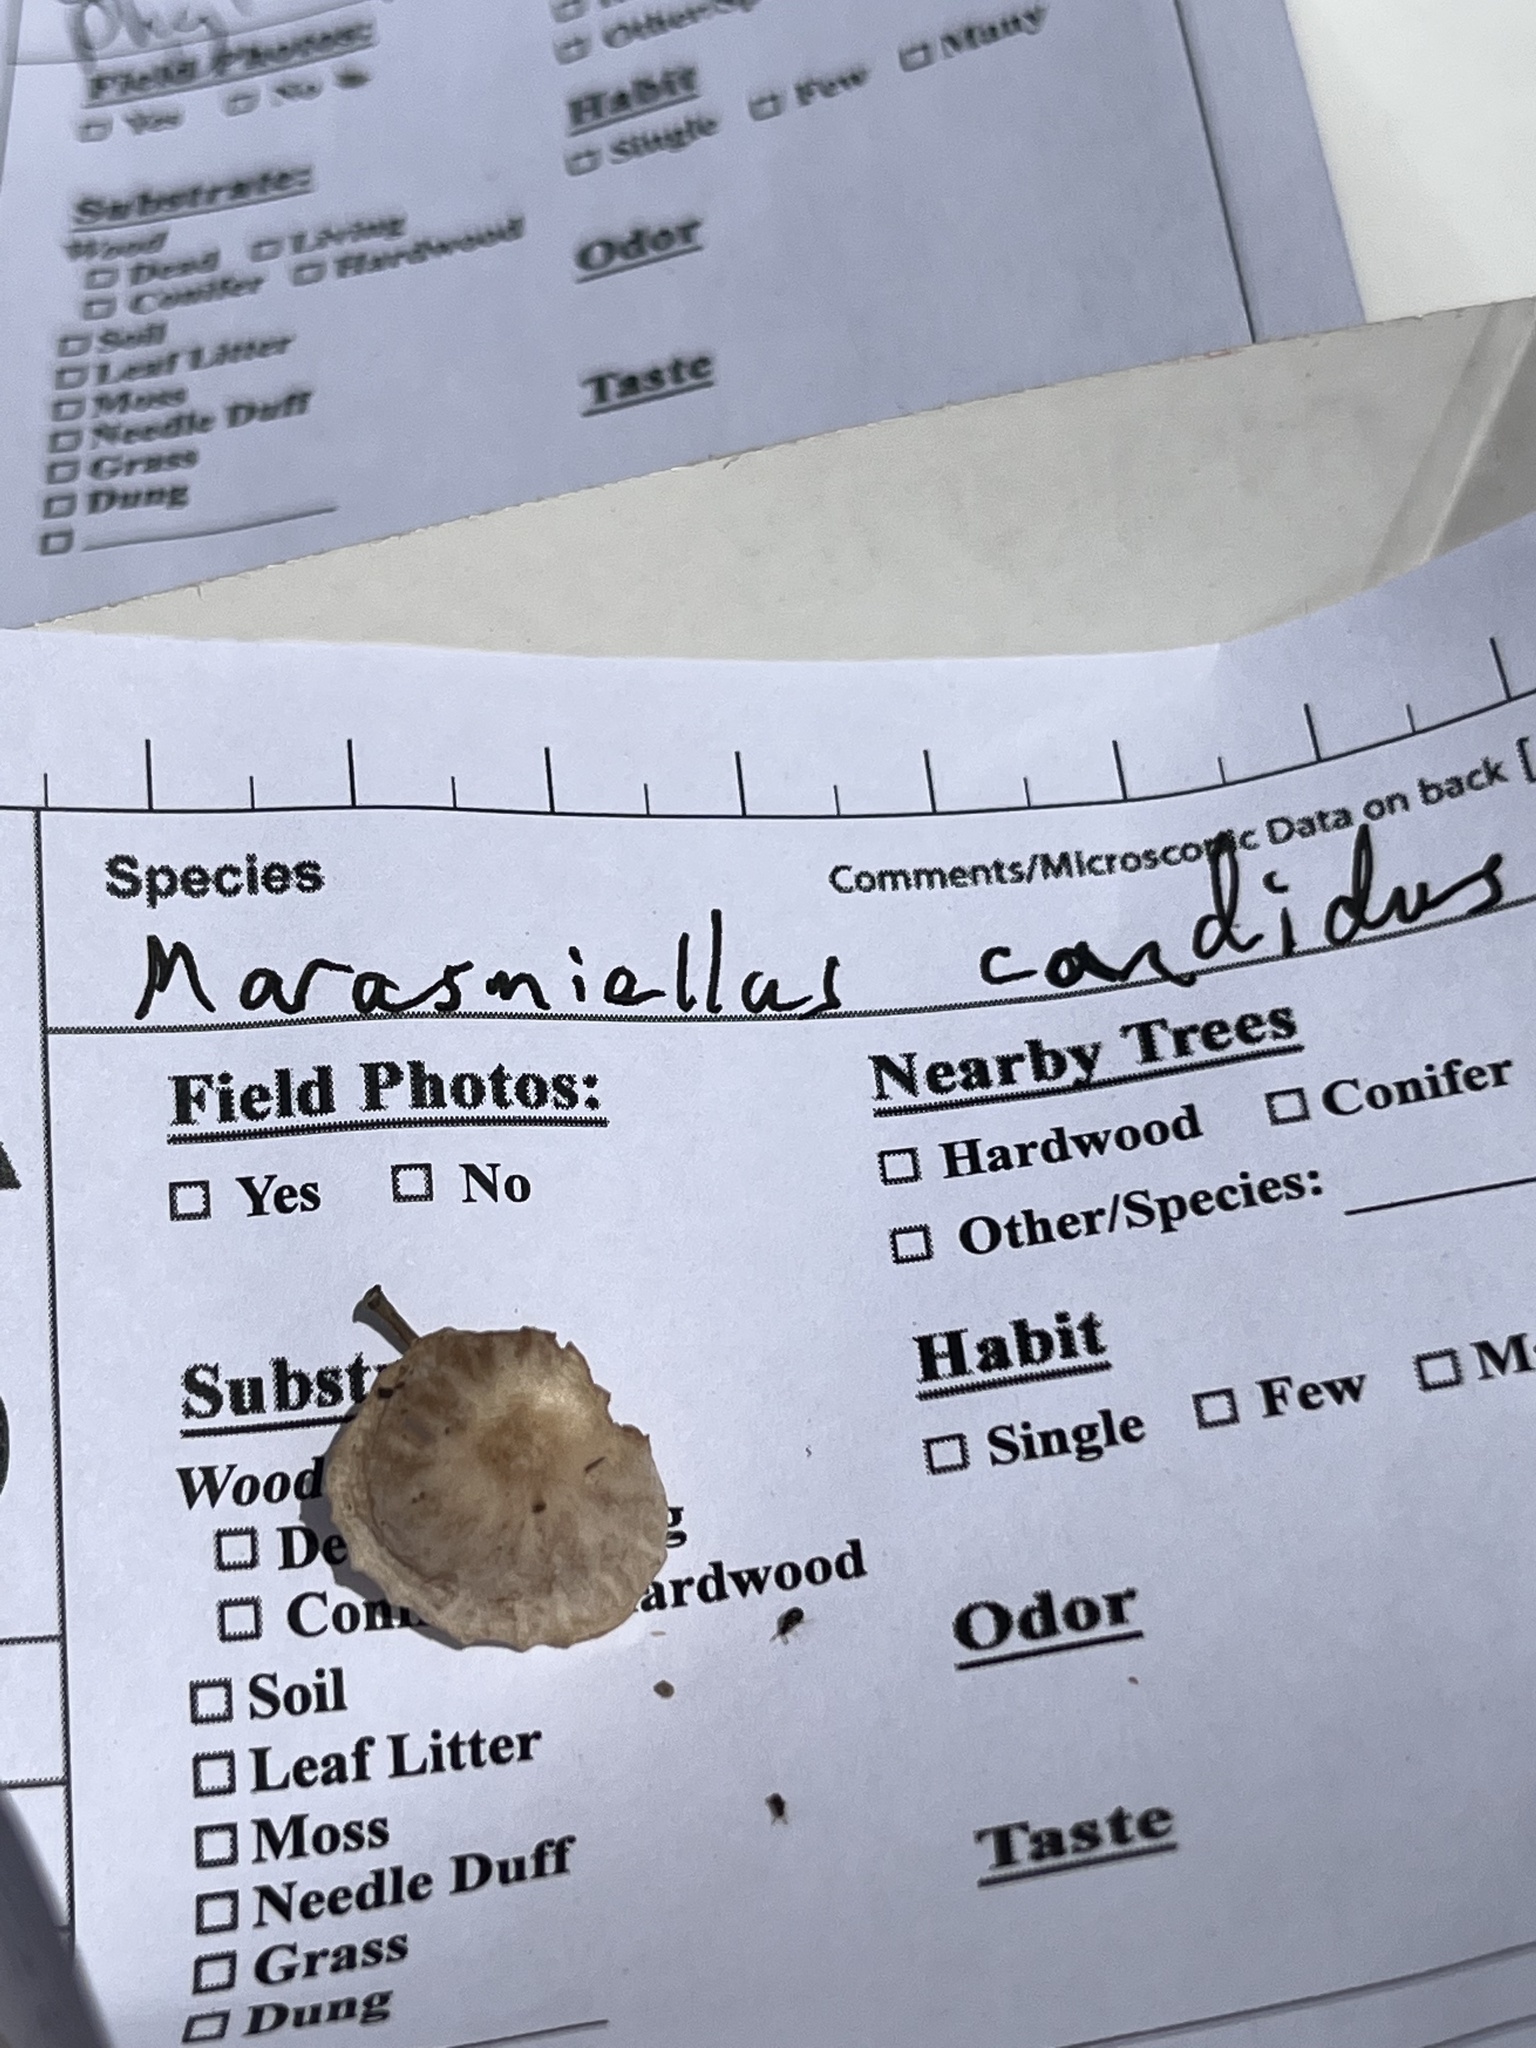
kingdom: Fungi
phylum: Basidiomycota
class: Agaricomycetes
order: Agaricales
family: Omphalotaceae
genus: Marasmiellus
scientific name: Marasmiellus candidus
